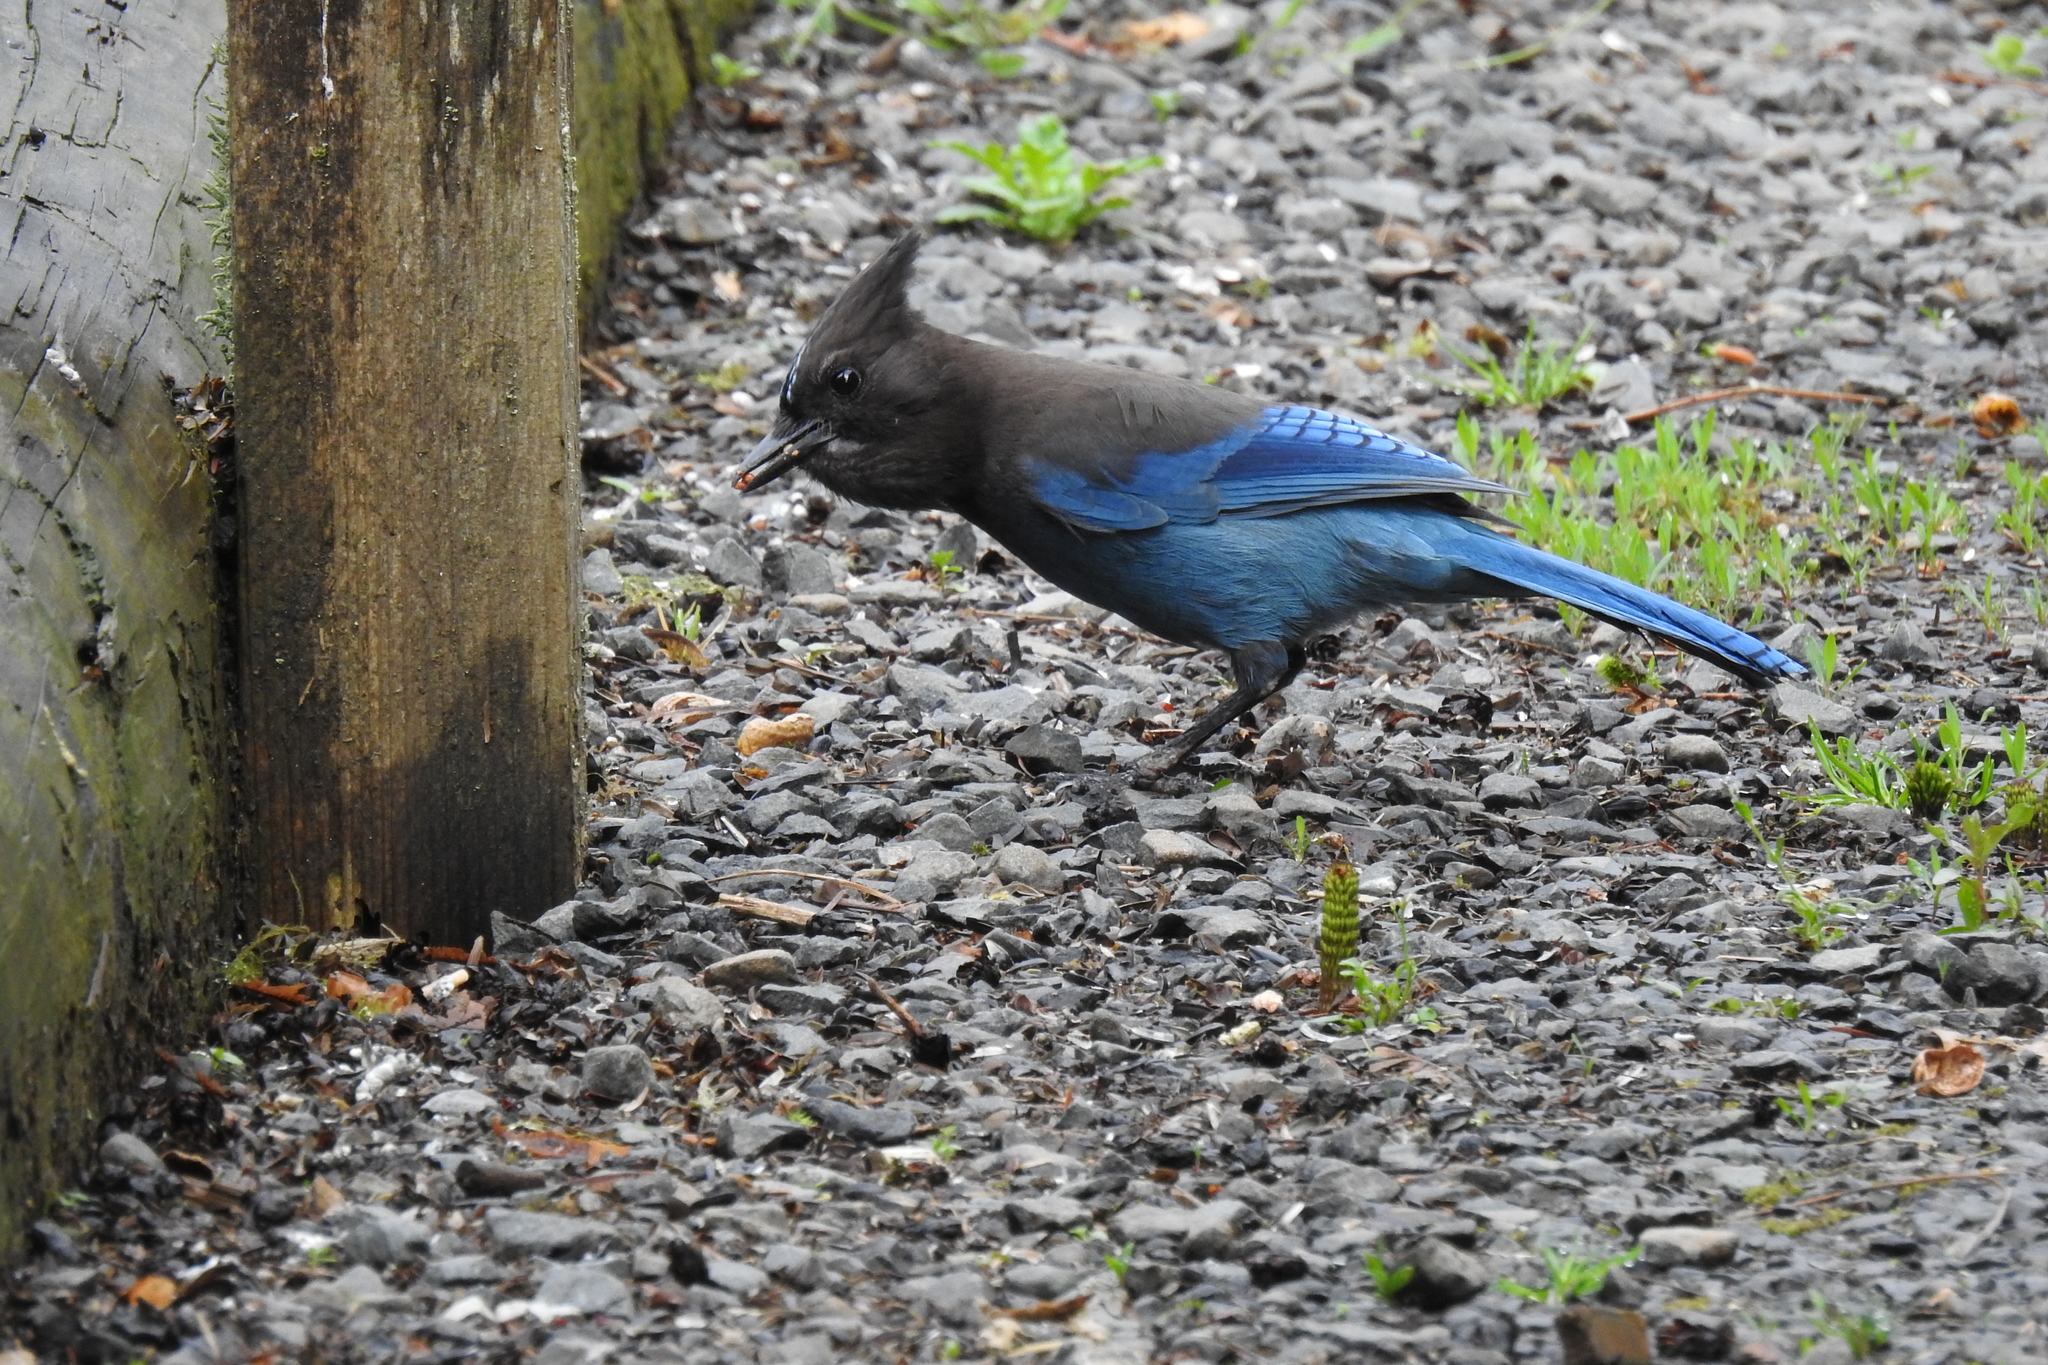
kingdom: Animalia
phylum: Chordata
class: Aves
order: Passeriformes
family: Corvidae
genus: Cyanocitta
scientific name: Cyanocitta stelleri
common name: Steller's jay
